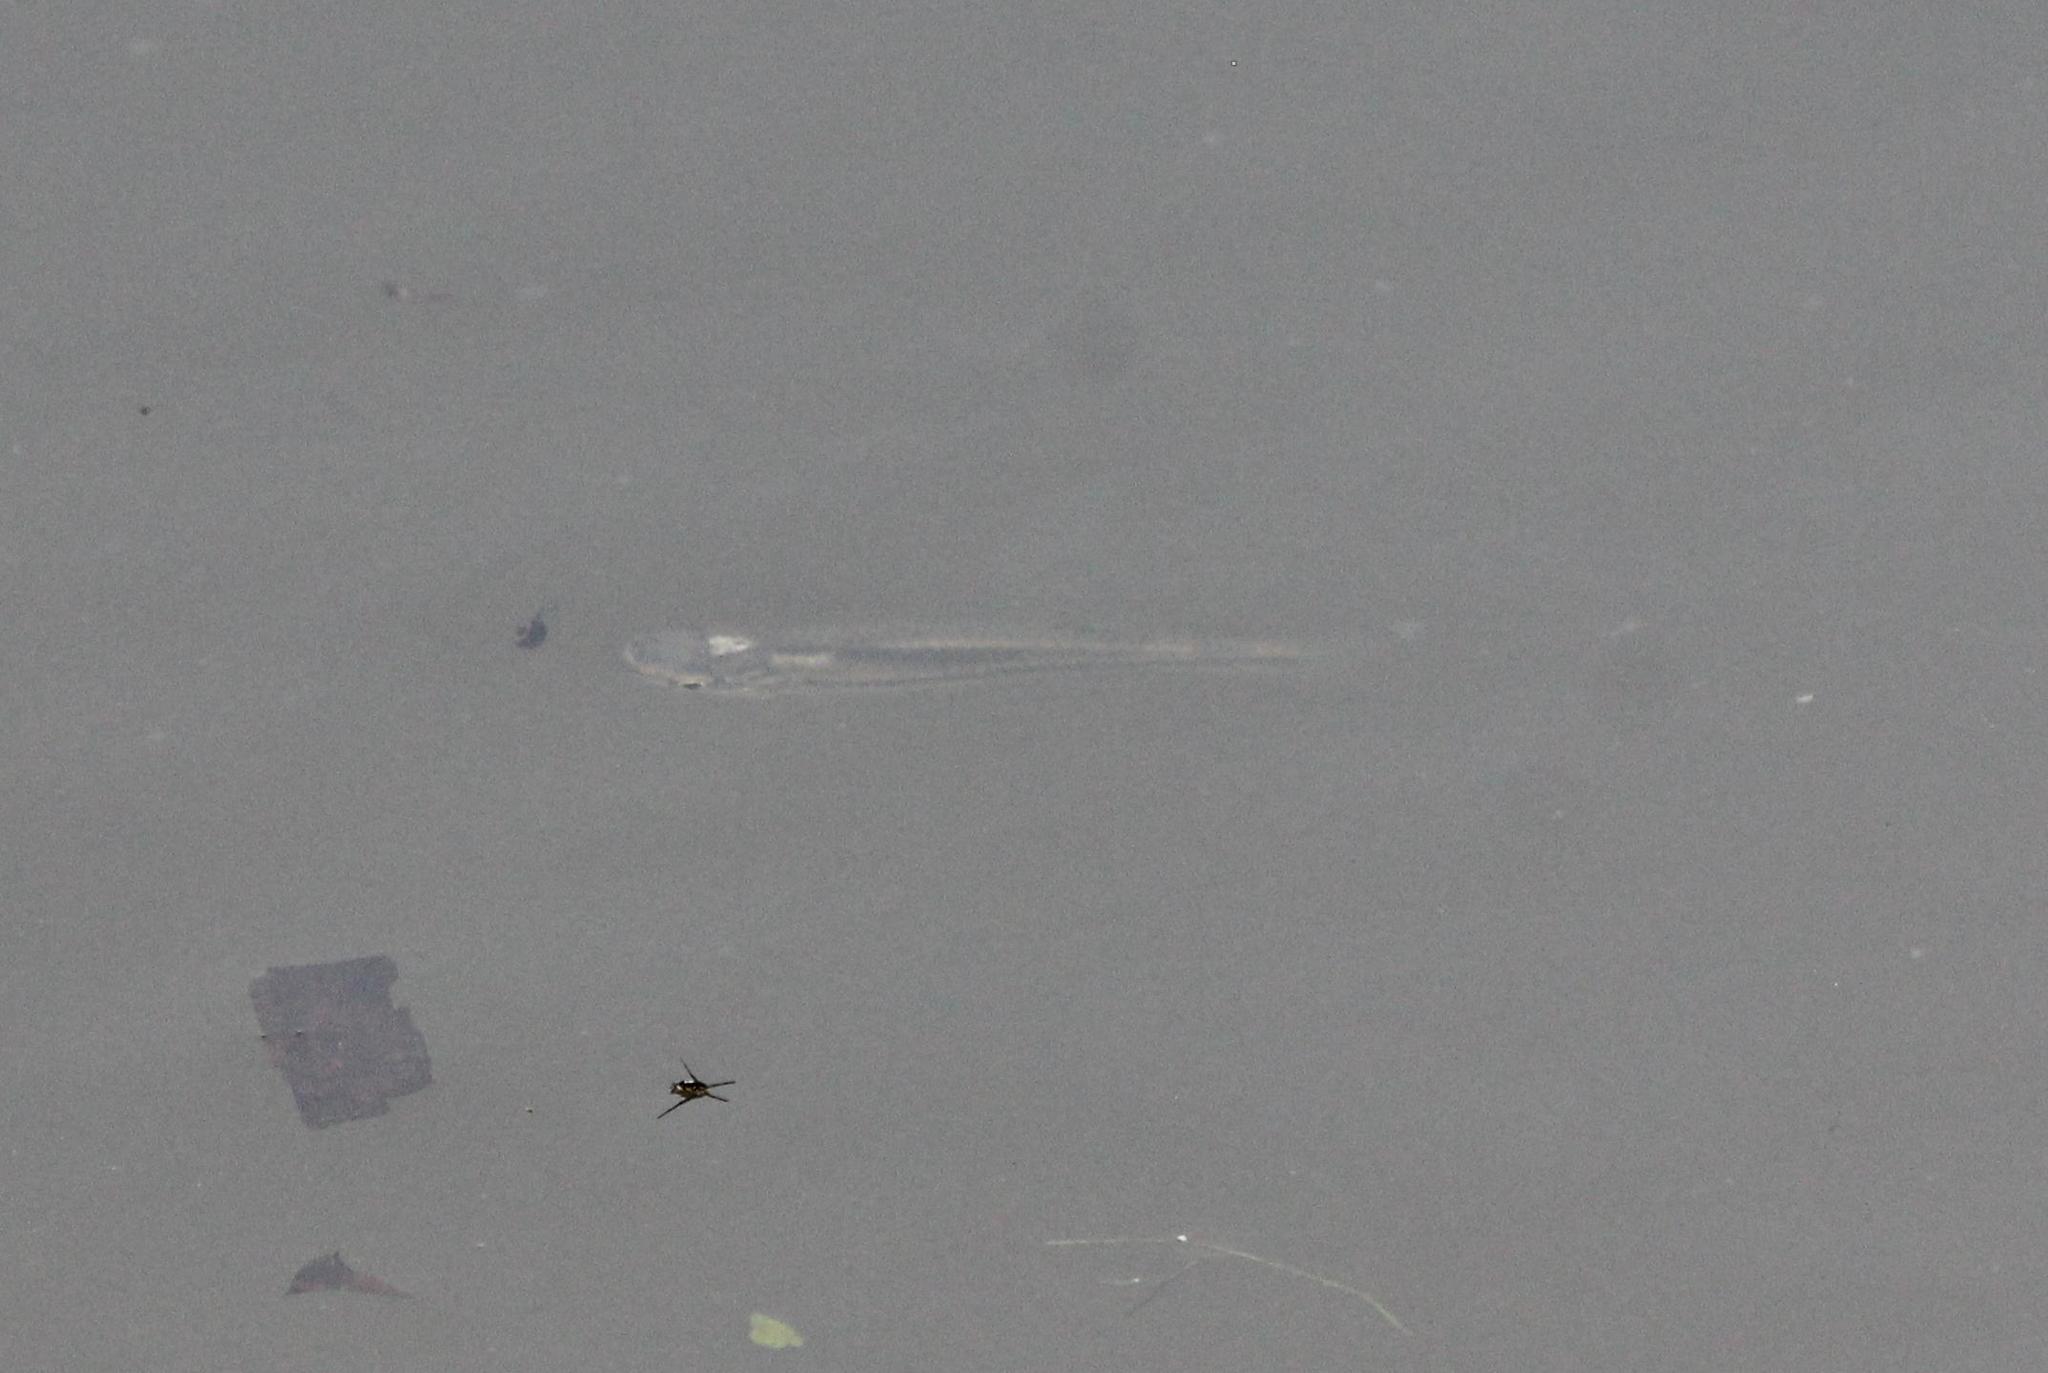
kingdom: Animalia
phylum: Chordata
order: Cyprinodontiformes
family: Fundulidae
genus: Fundulus
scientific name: Fundulus notatus
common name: Blackstripe topminnow
